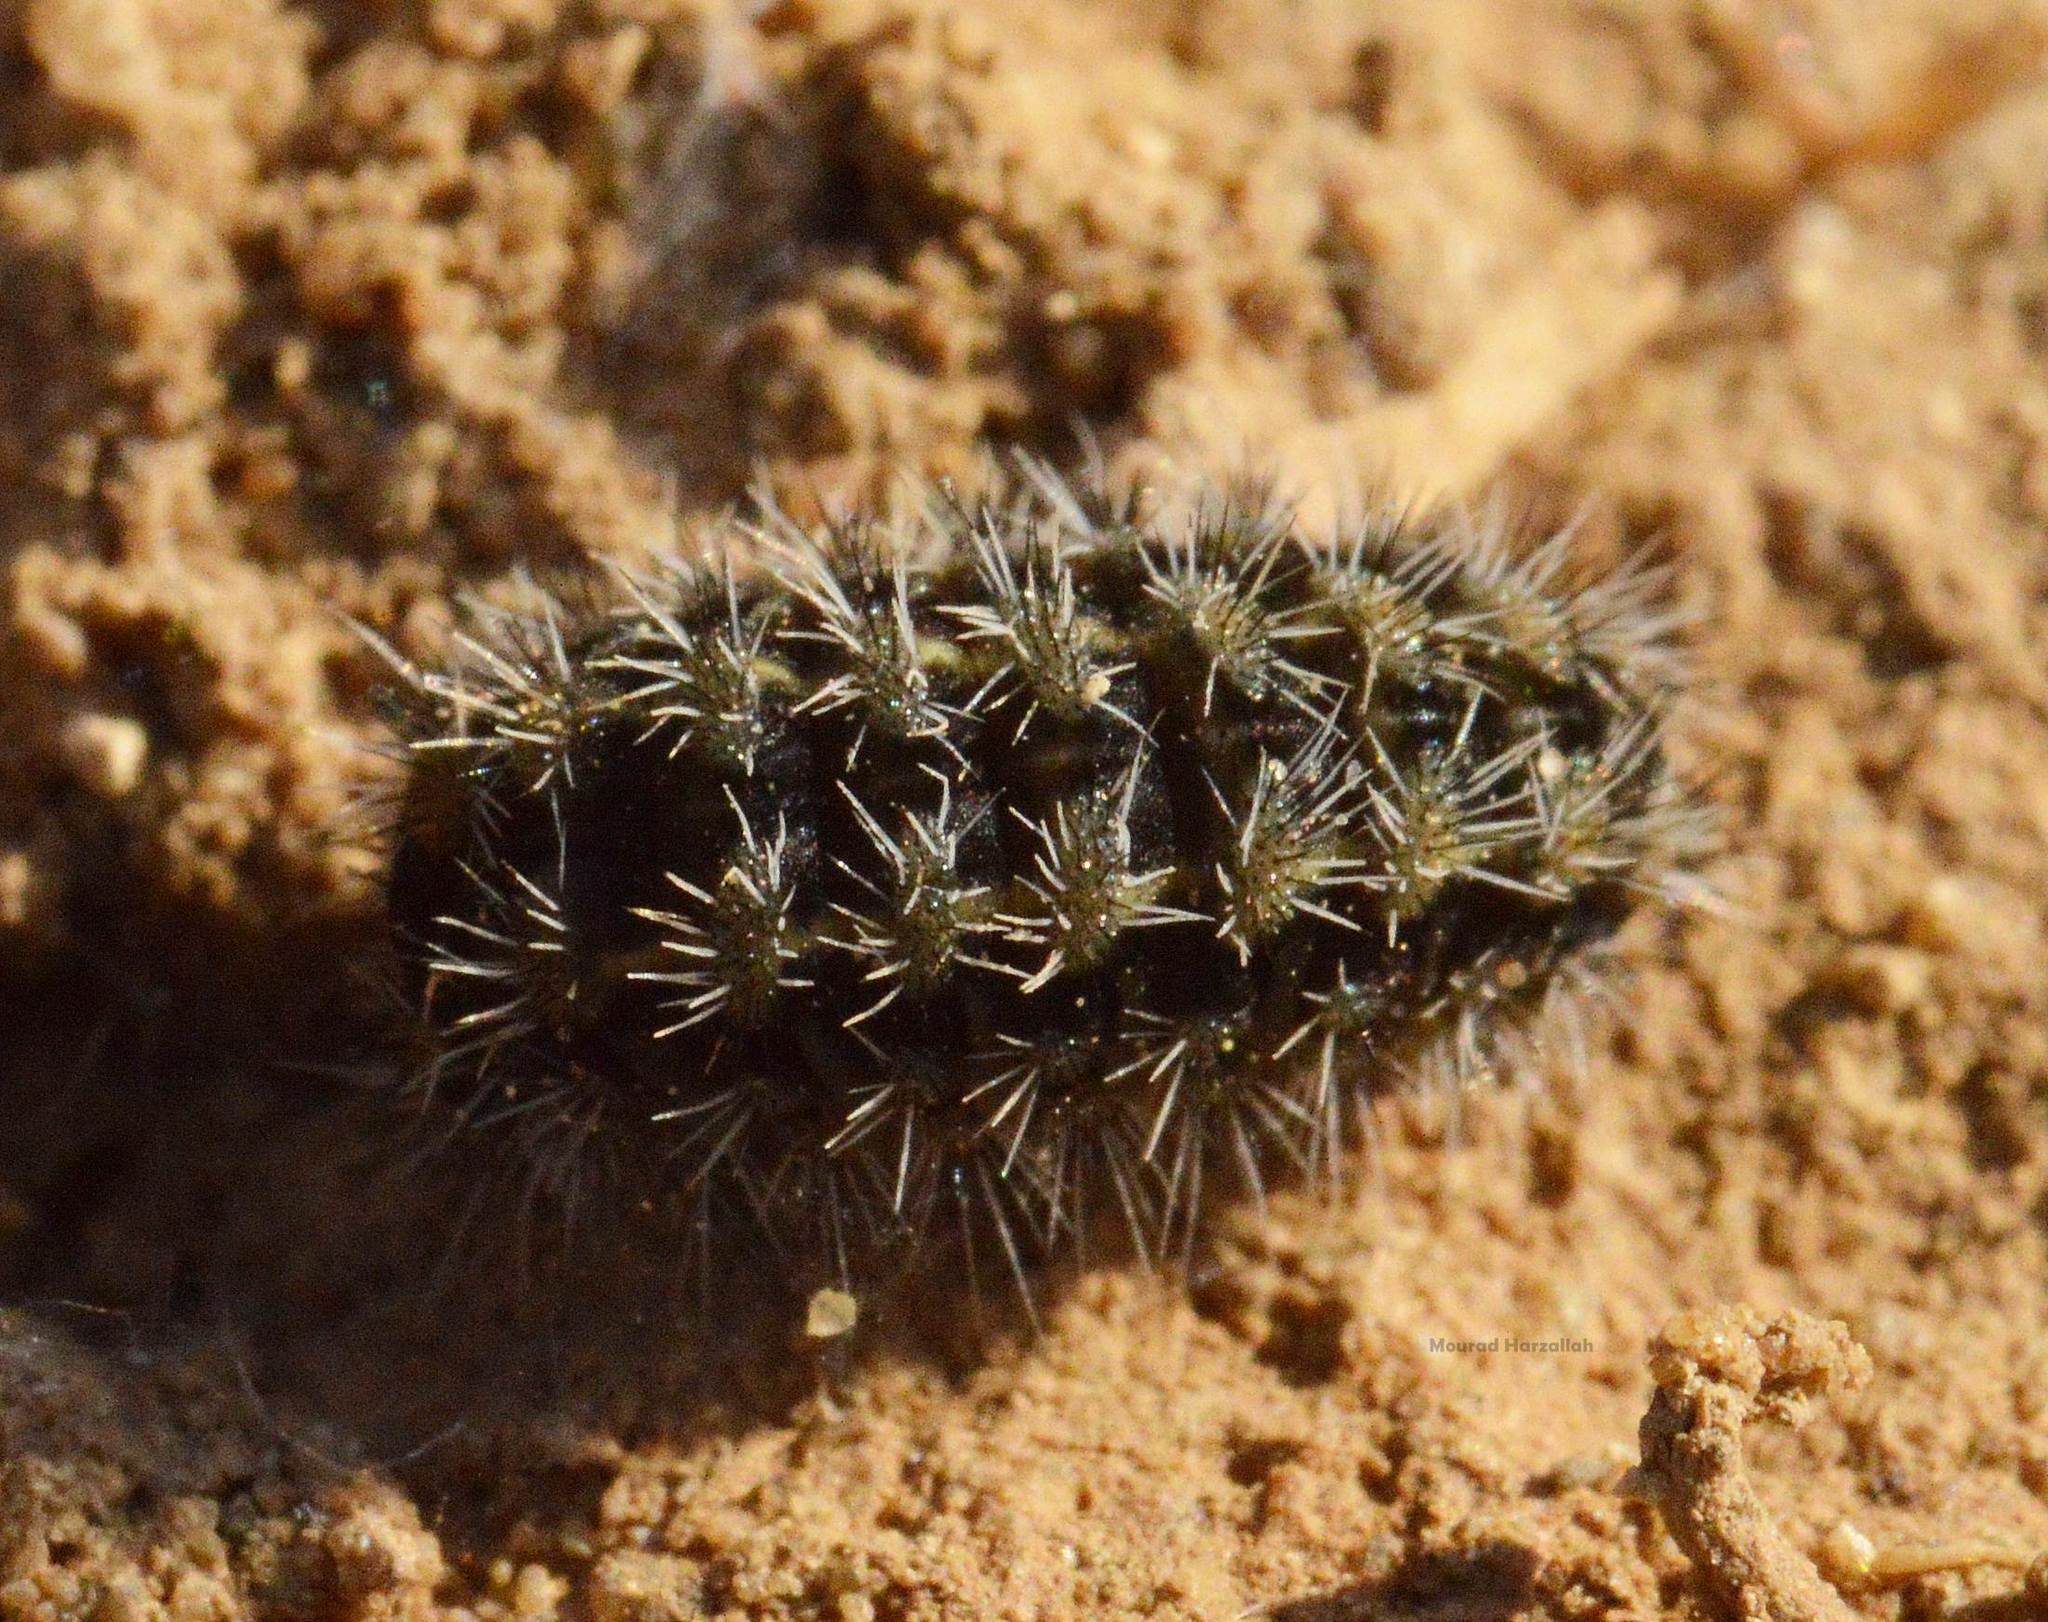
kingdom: Animalia
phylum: Arthropoda
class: Insecta
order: Lepidoptera
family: Erebidae
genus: Coscinia
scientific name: Coscinia cribraria
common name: Speckled footman
